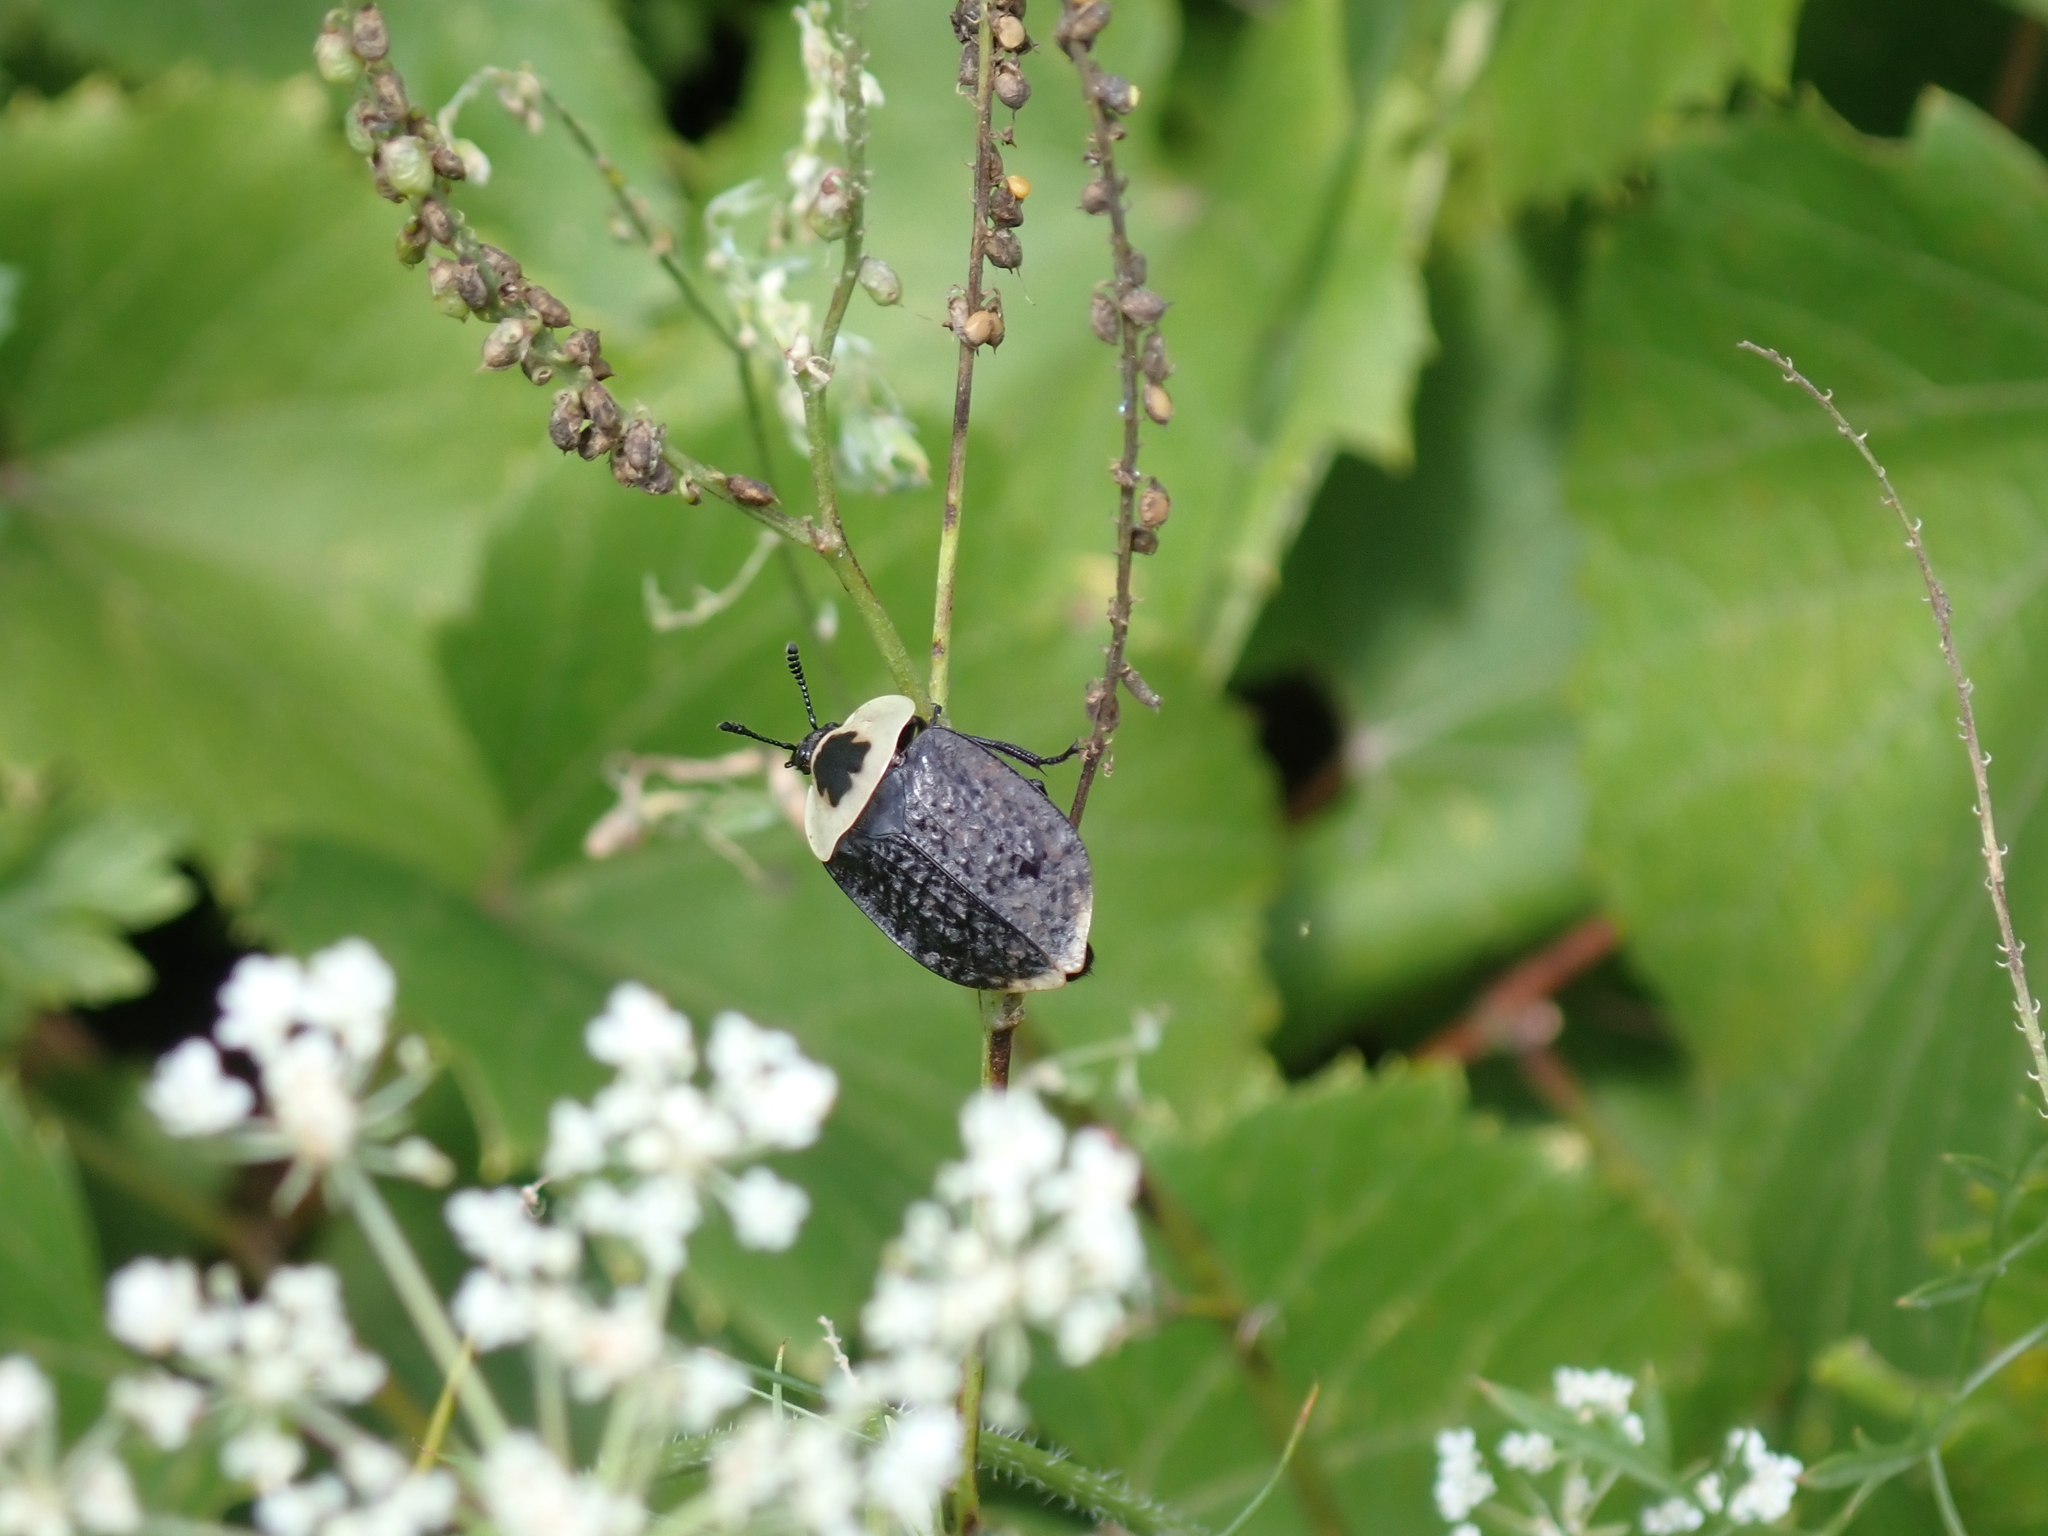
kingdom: Animalia
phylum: Arthropoda
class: Insecta
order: Coleoptera
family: Staphylinidae
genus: Necrophila
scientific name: Necrophila americana
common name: American carrion beetle
